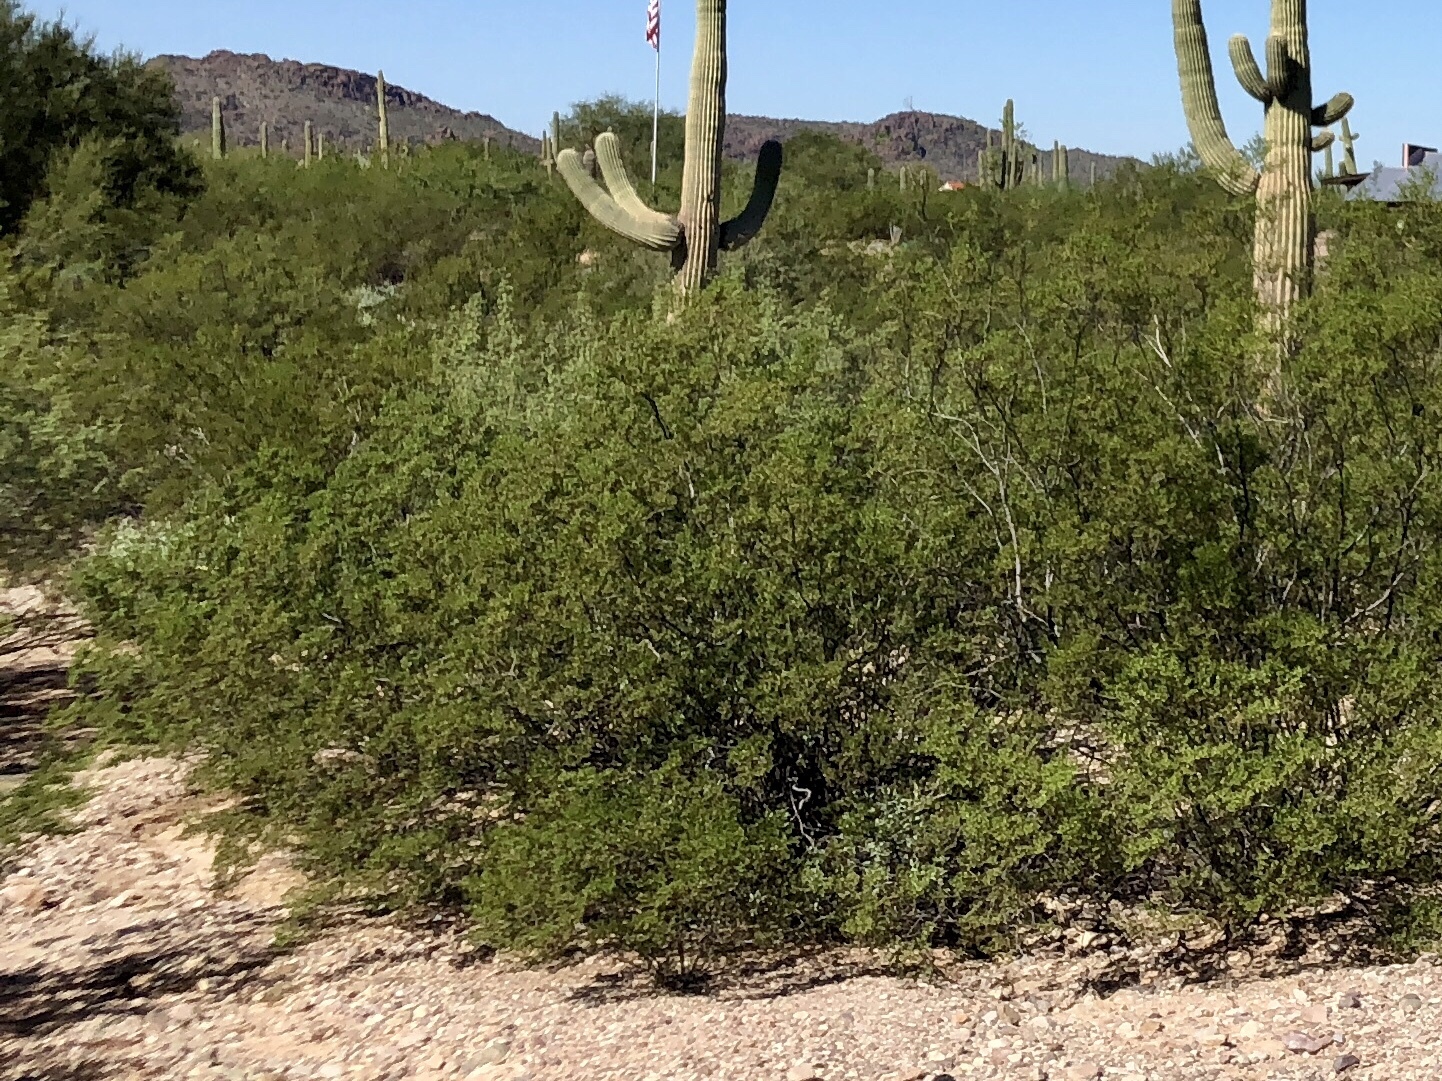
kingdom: Plantae
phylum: Tracheophyta
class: Magnoliopsida
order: Zygophyllales
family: Zygophyllaceae
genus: Larrea
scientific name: Larrea tridentata
